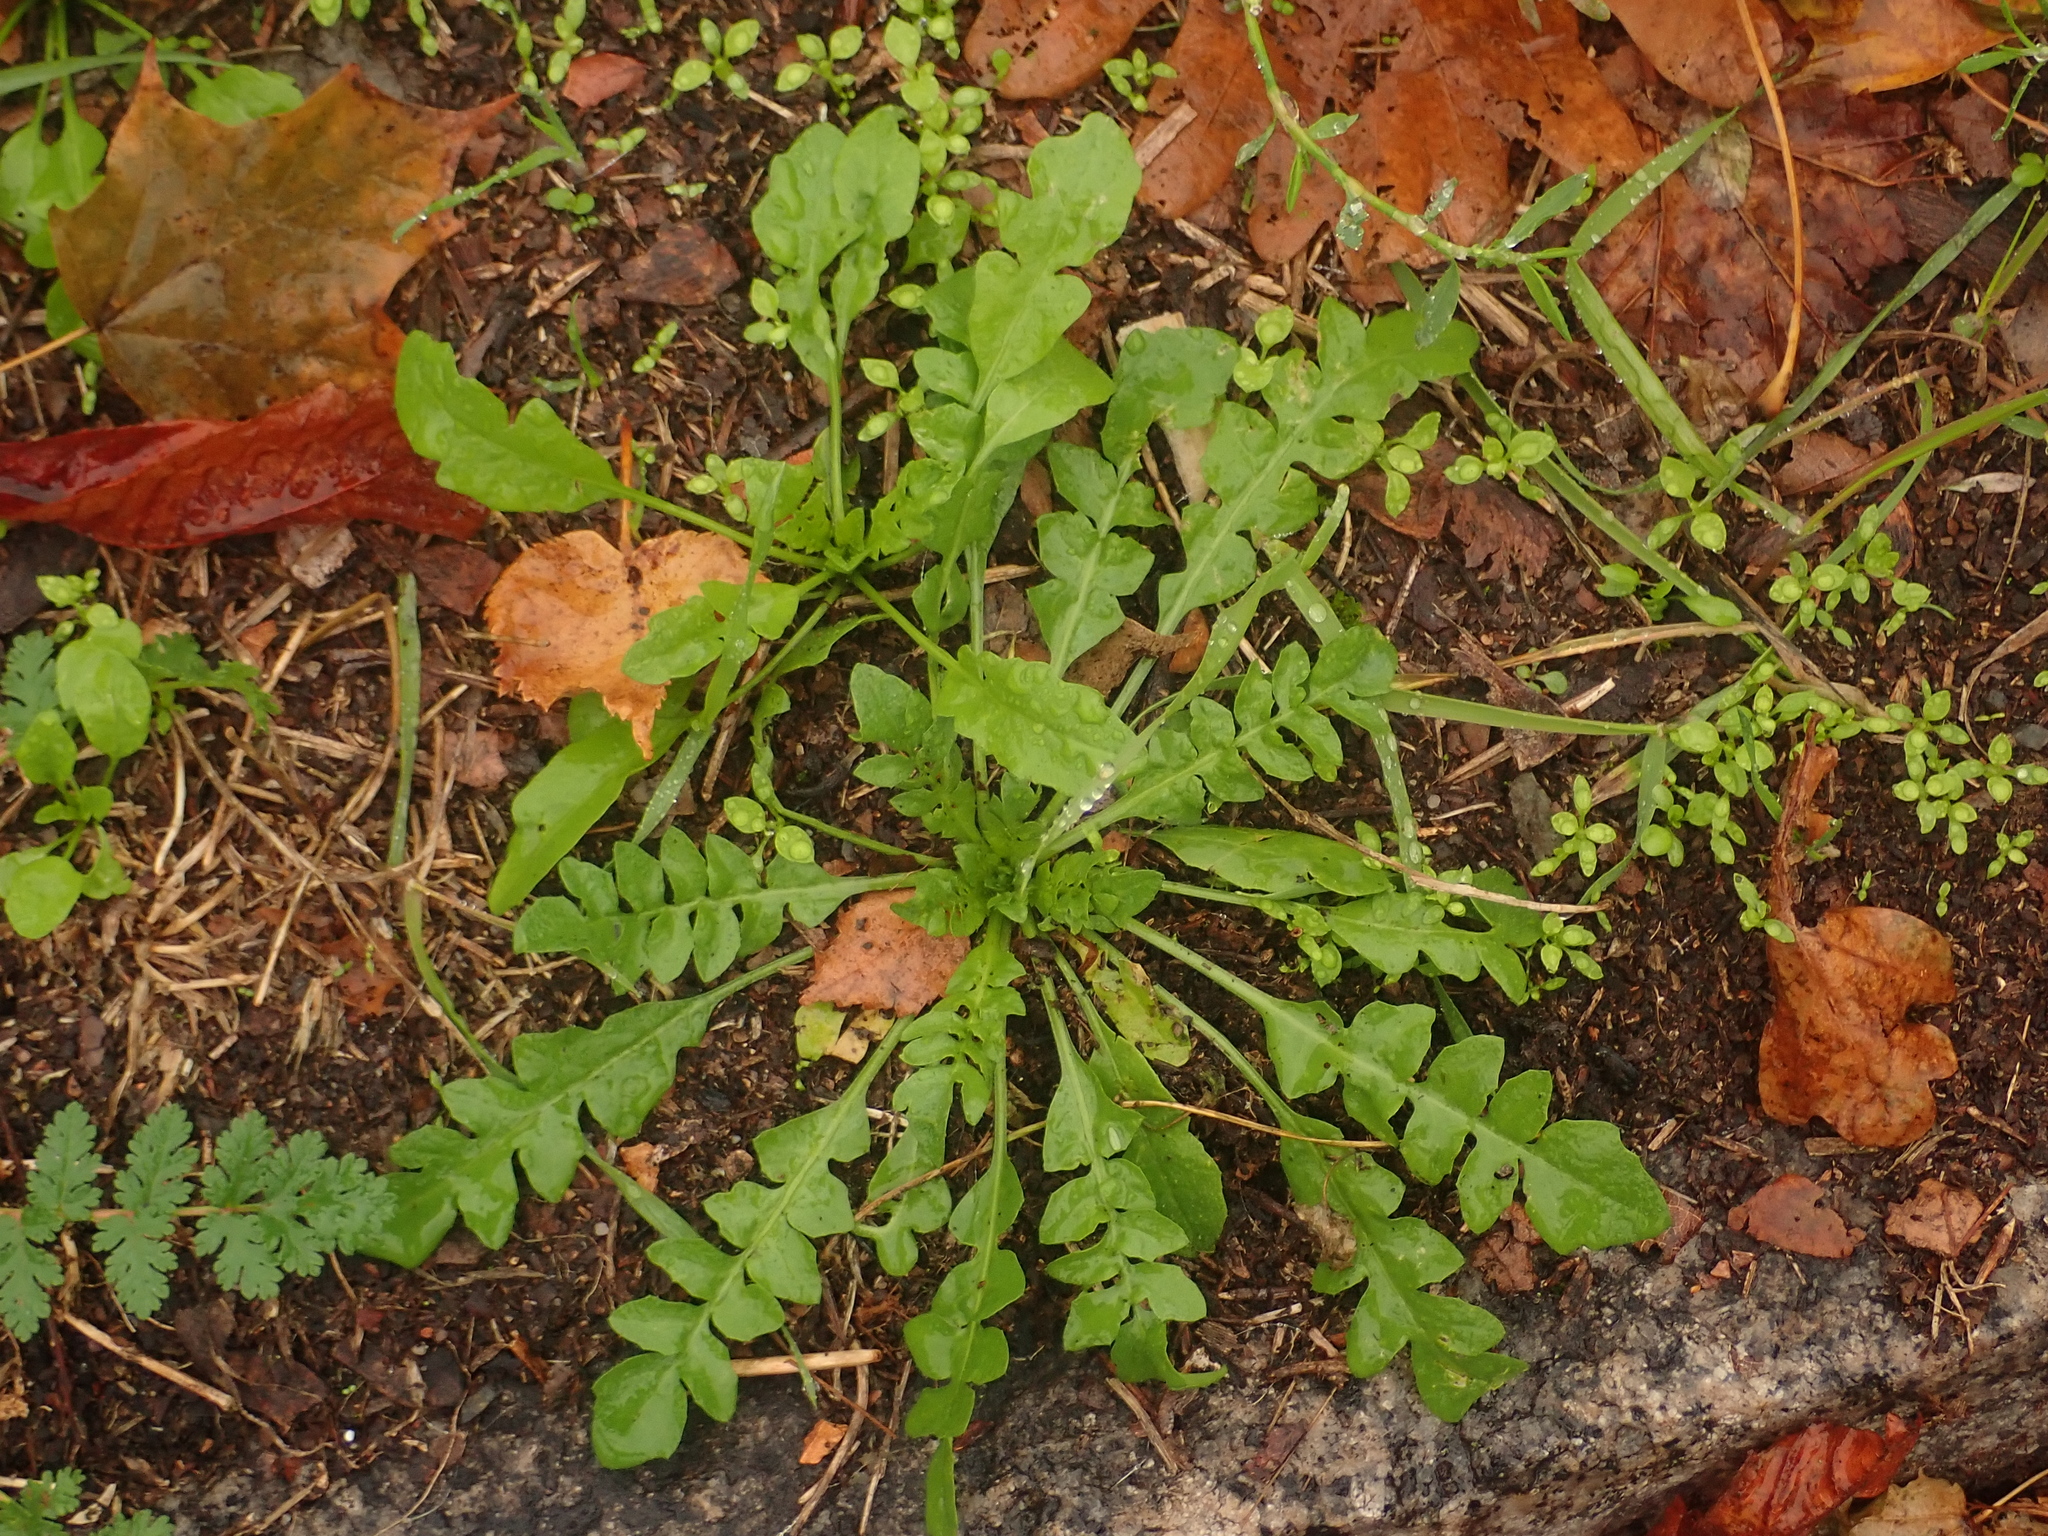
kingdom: Plantae
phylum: Tracheophyta
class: Magnoliopsida
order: Brassicales
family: Brassicaceae
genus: Capsella
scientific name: Capsella bursa-pastoris
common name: Shepherd's purse
